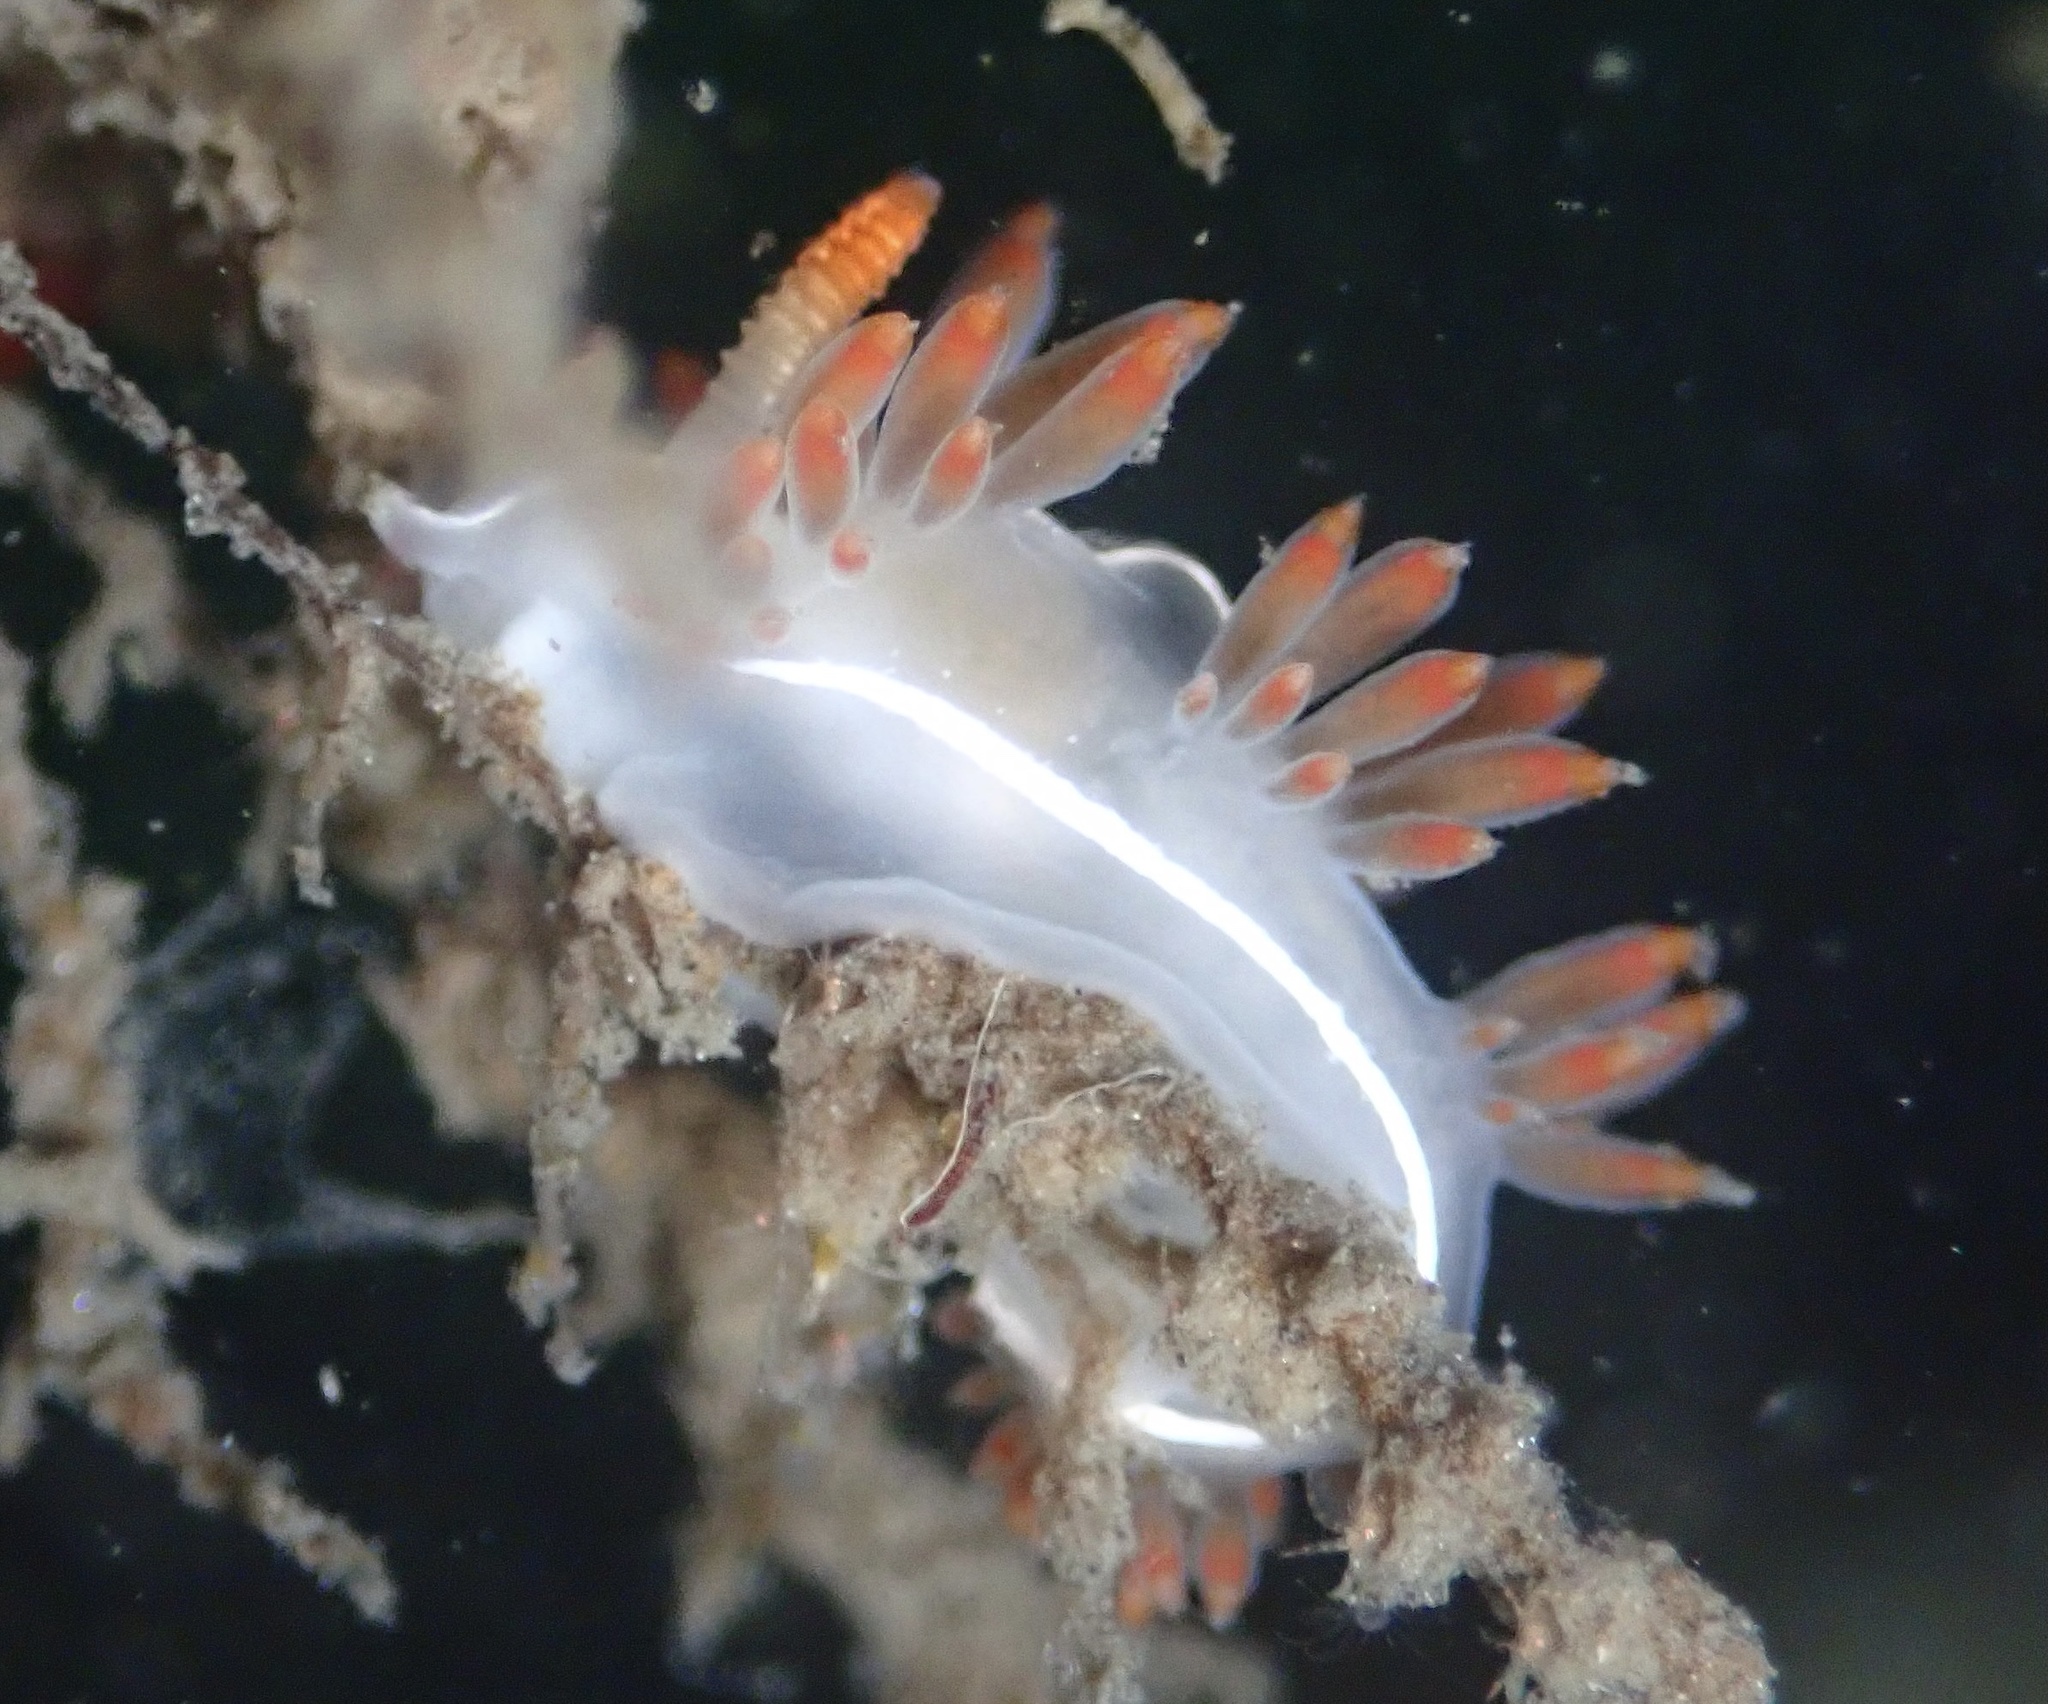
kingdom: Animalia
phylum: Mollusca
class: Gastropoda
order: Nudibranchia
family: Coryphellidae
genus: Coryphella
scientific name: Coryphella trilineata
